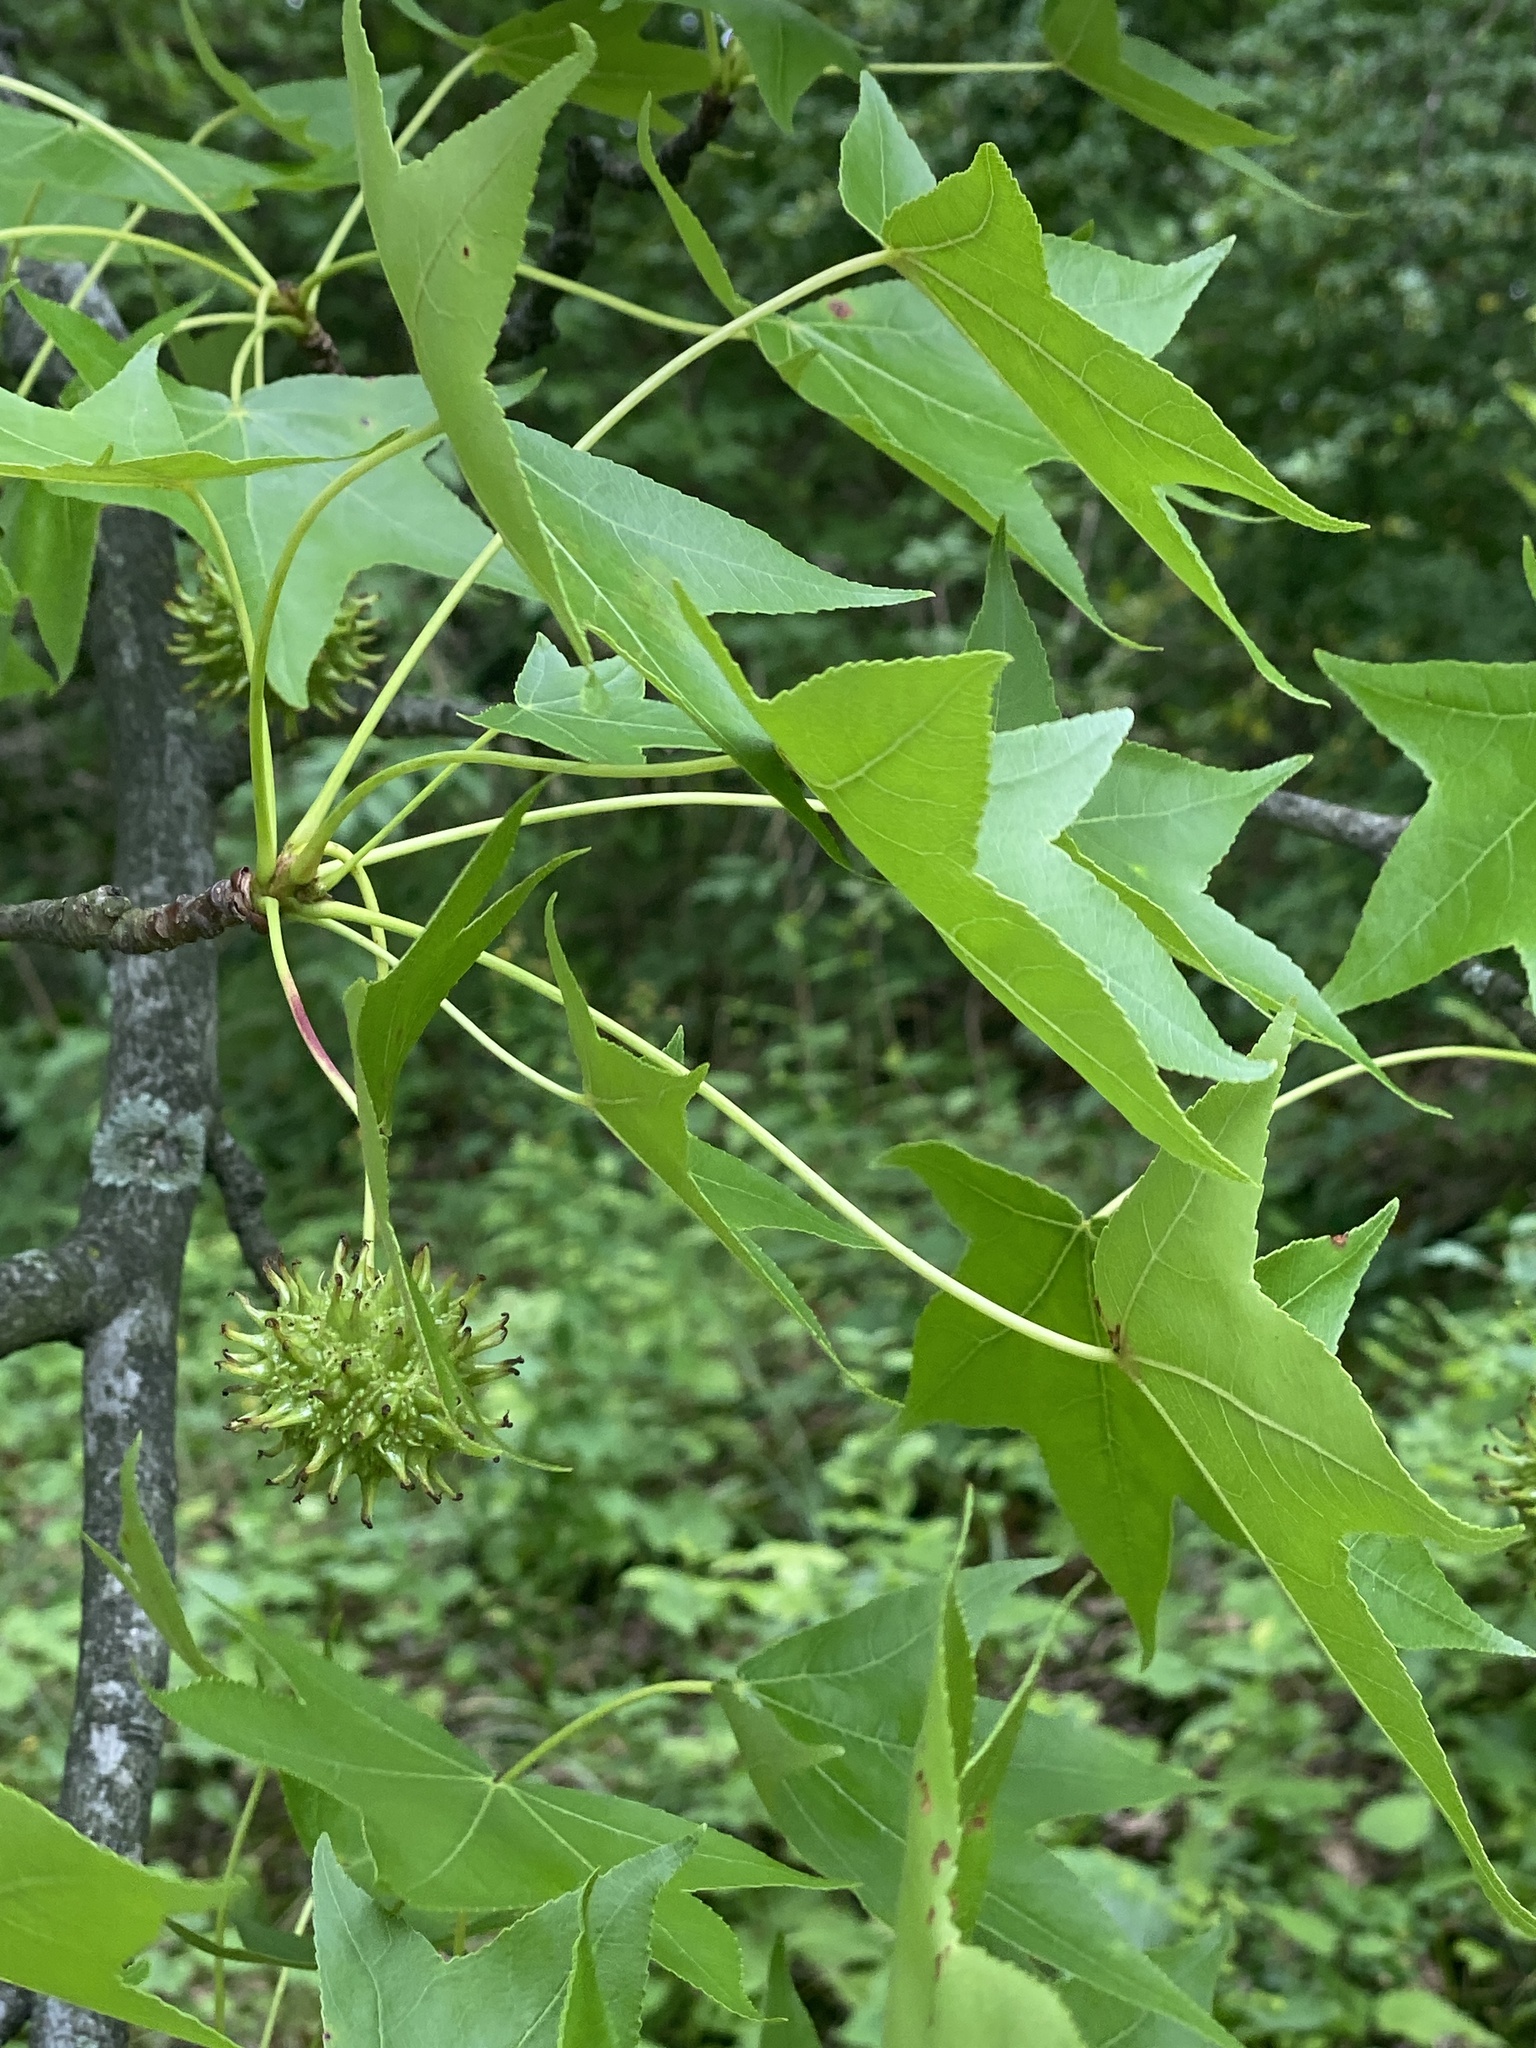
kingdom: Plantae
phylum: Tracheophyta
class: Magnoliopsida
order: Saxifragales
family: Altingiaceae
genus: Liquidambar
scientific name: Liquidambar styraciflua
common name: Sweet gum
